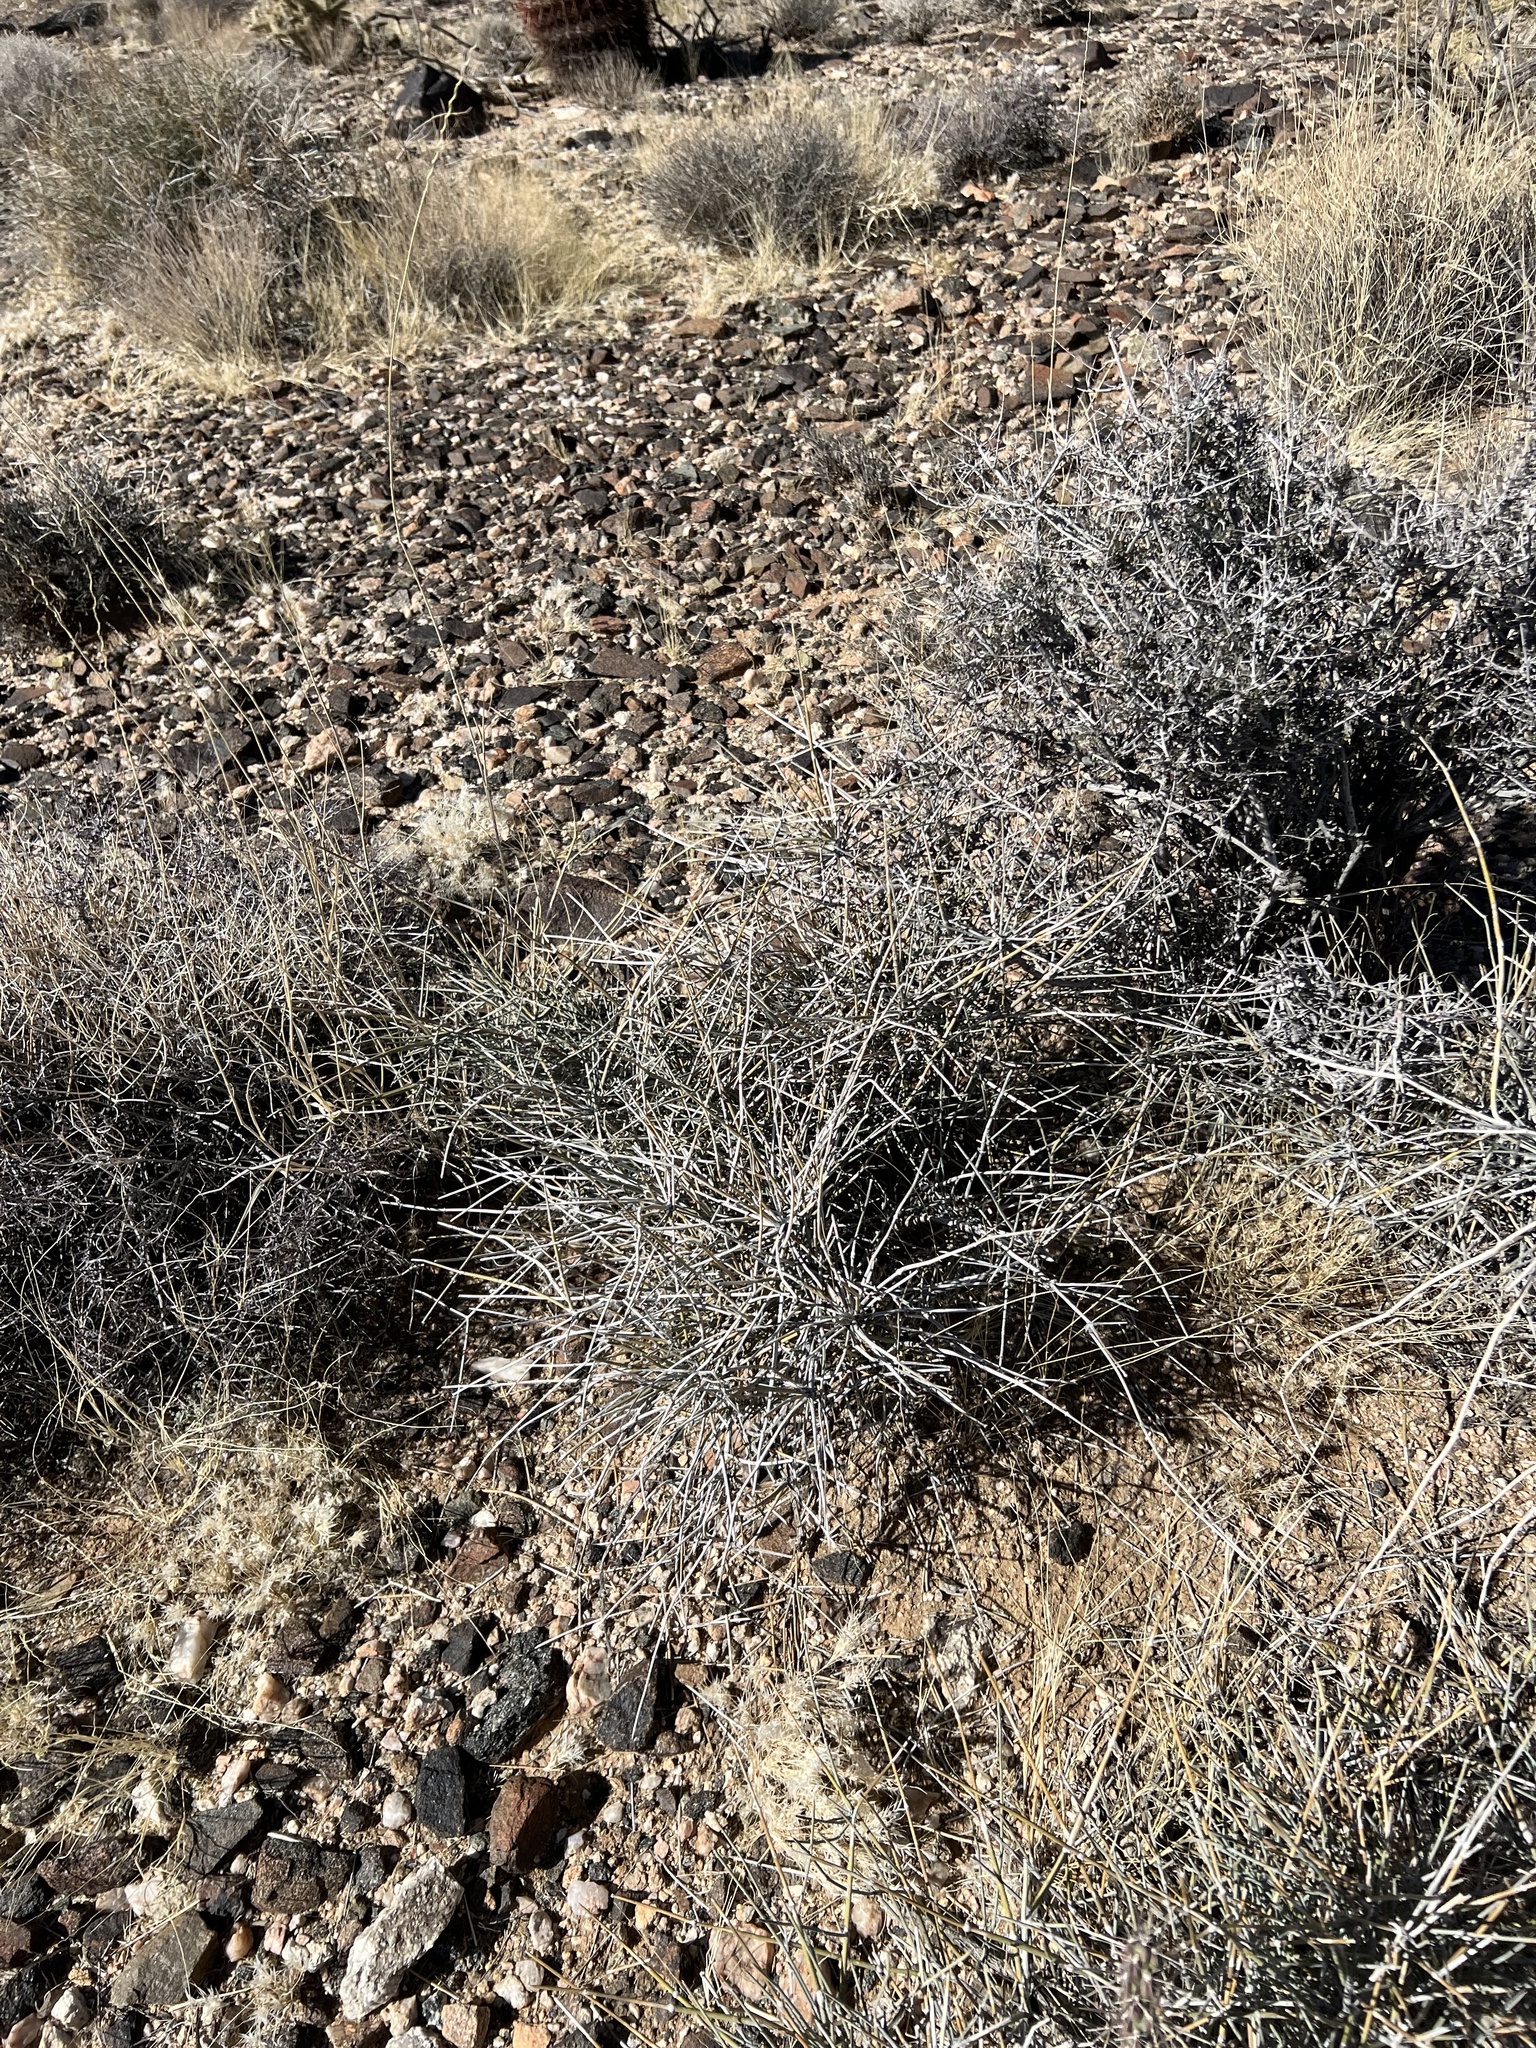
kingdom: Plantae
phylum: Tracheophyta
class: Gnetopsida
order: Ephedrales
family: Ephedraceae
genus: Ephedra
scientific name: Ephedra nevadensis
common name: Gray ephedra
